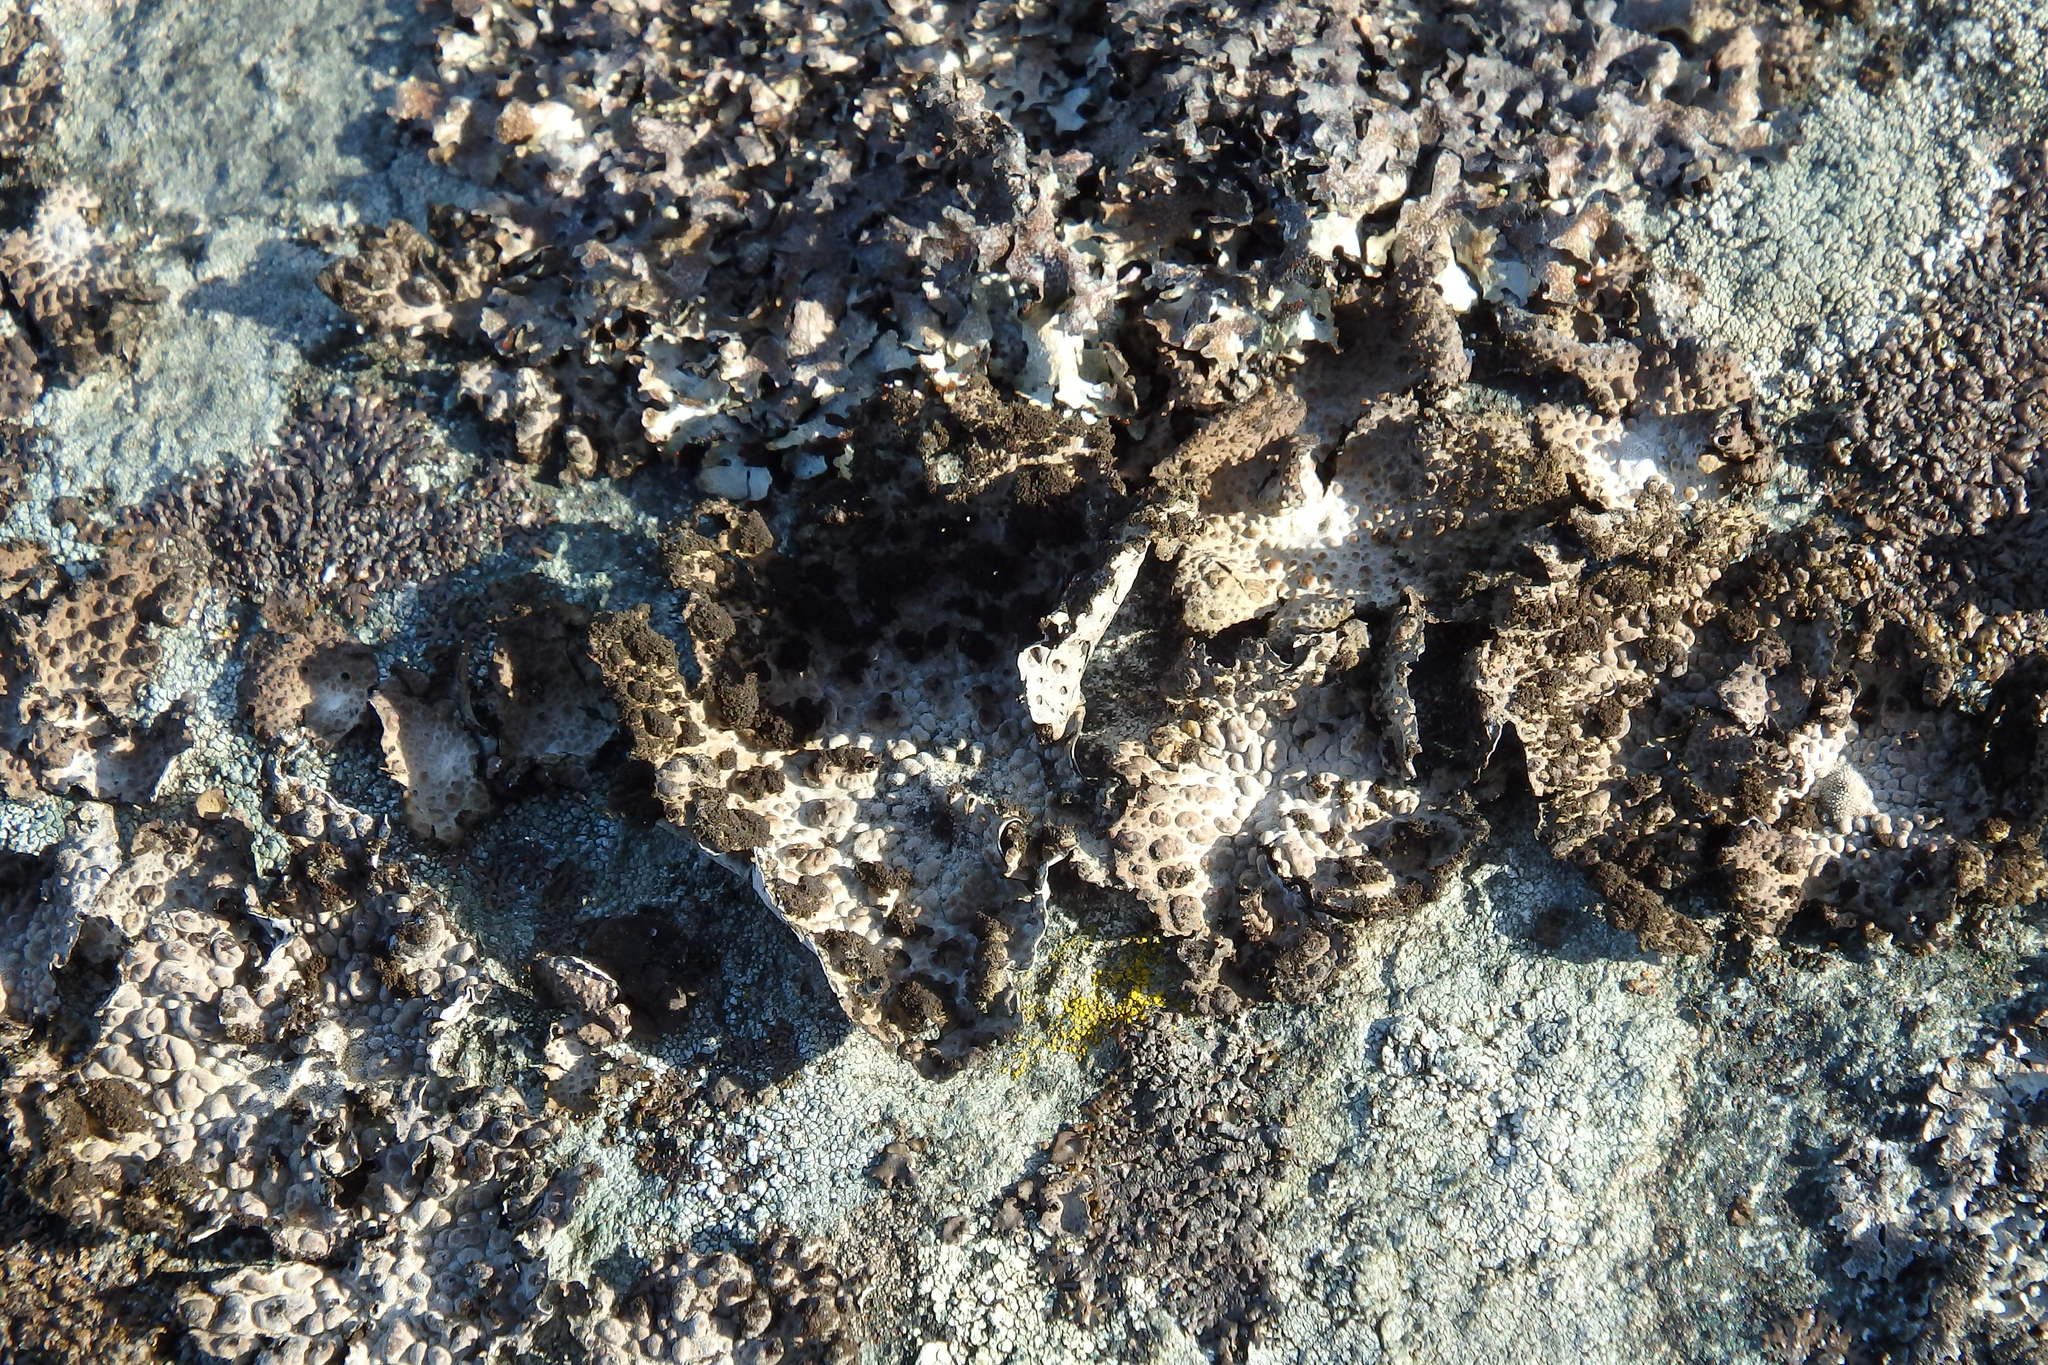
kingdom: Fungi
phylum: Ascomycota
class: Lecanoromycetes
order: Umbilicariales
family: Umbilicariaceae
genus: Lasallia
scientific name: Lasallia pustulata
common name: Blistered toadskin lichen
